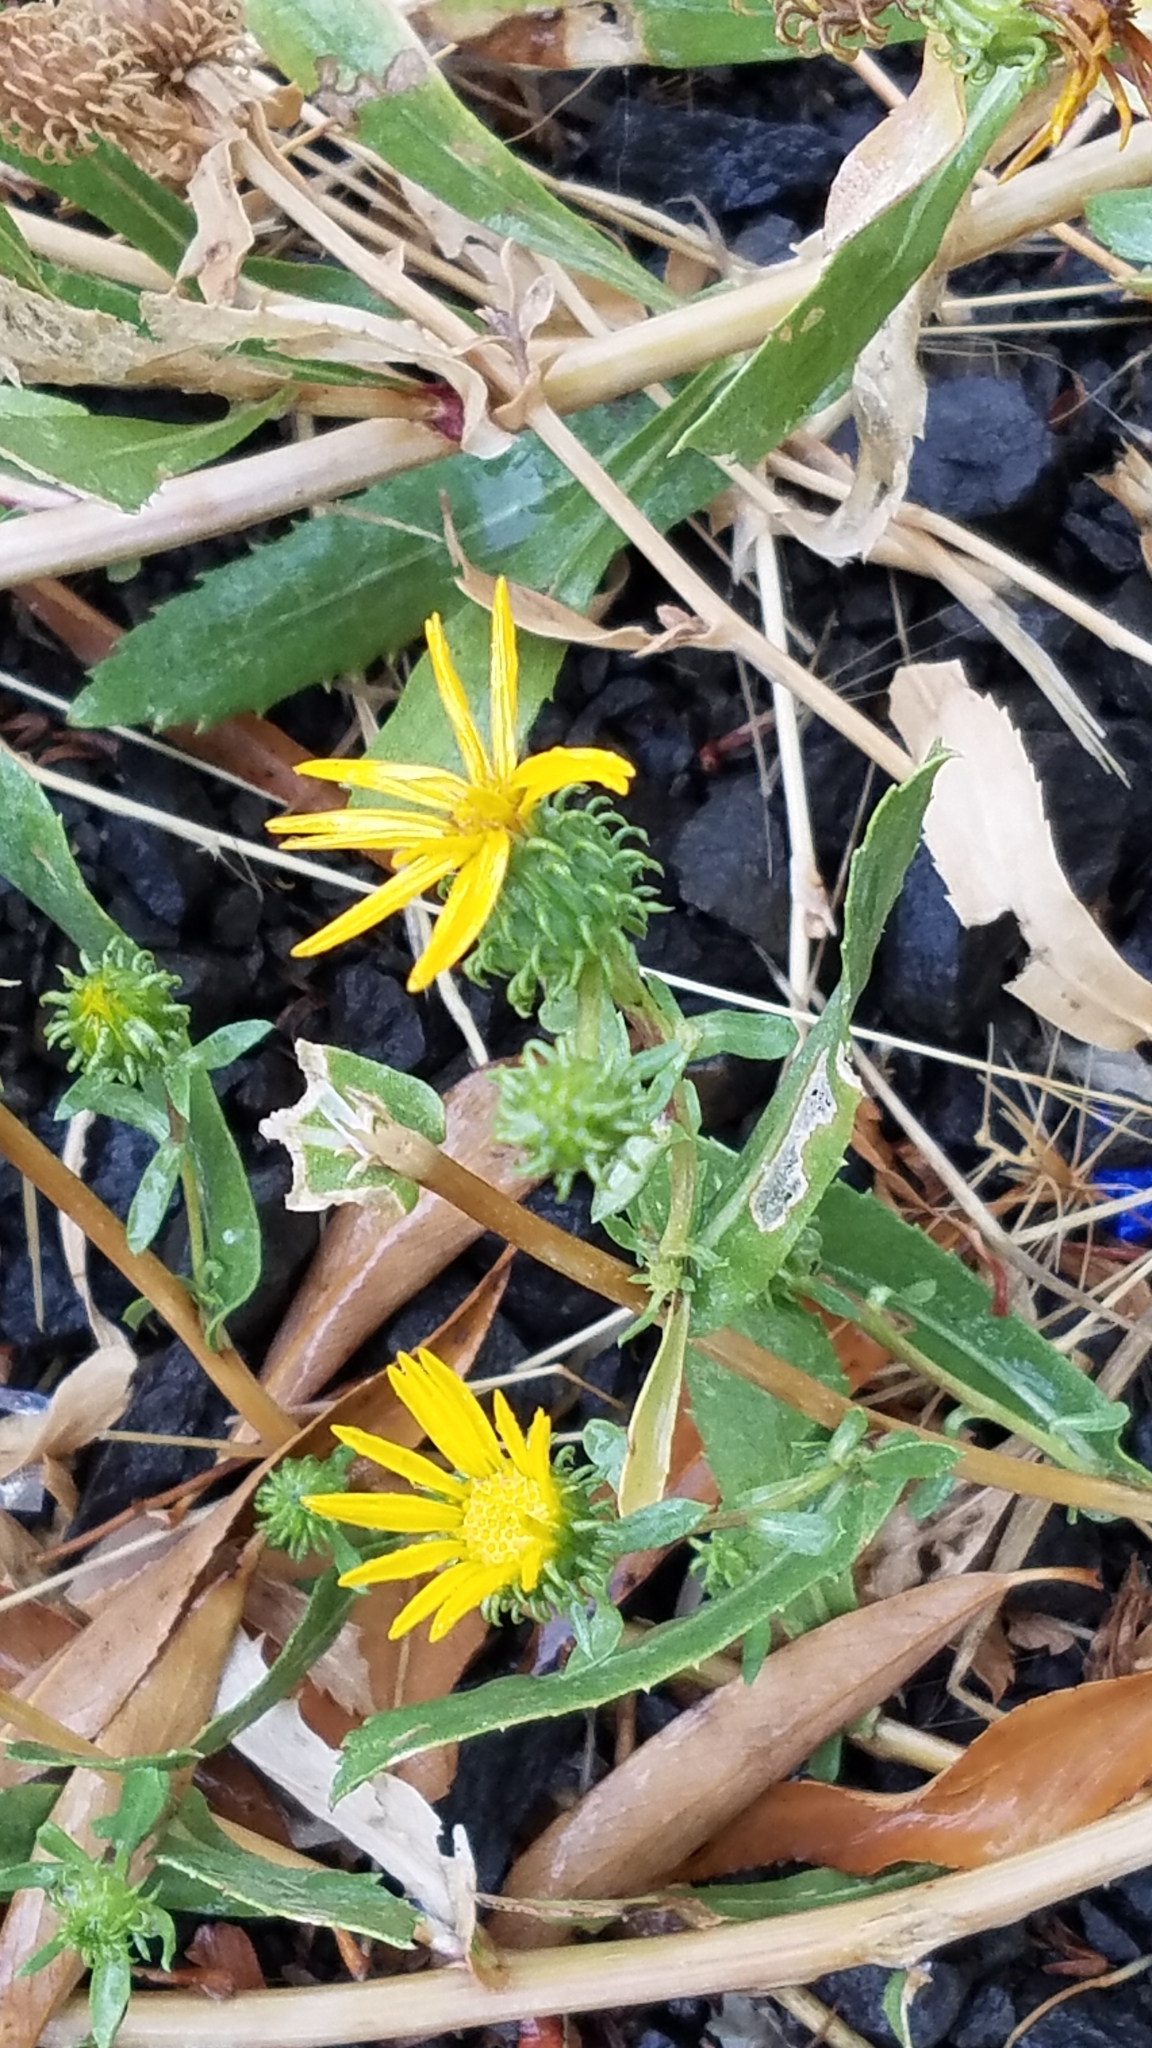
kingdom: Plantae
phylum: Tracheophyta
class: Magnoliopsida
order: Asterales
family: Asteraceae
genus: Grindelia
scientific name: Grindelia squarrosa
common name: Curly-cup gumweed
